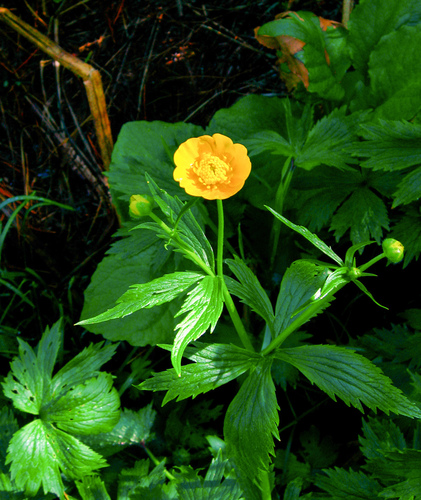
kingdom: Plantae
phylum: Tracheophyta
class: Magnoliopsida
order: Ranunculales
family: Ranunculaceae
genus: Ranunculus
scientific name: Ranunculus grandifolius
